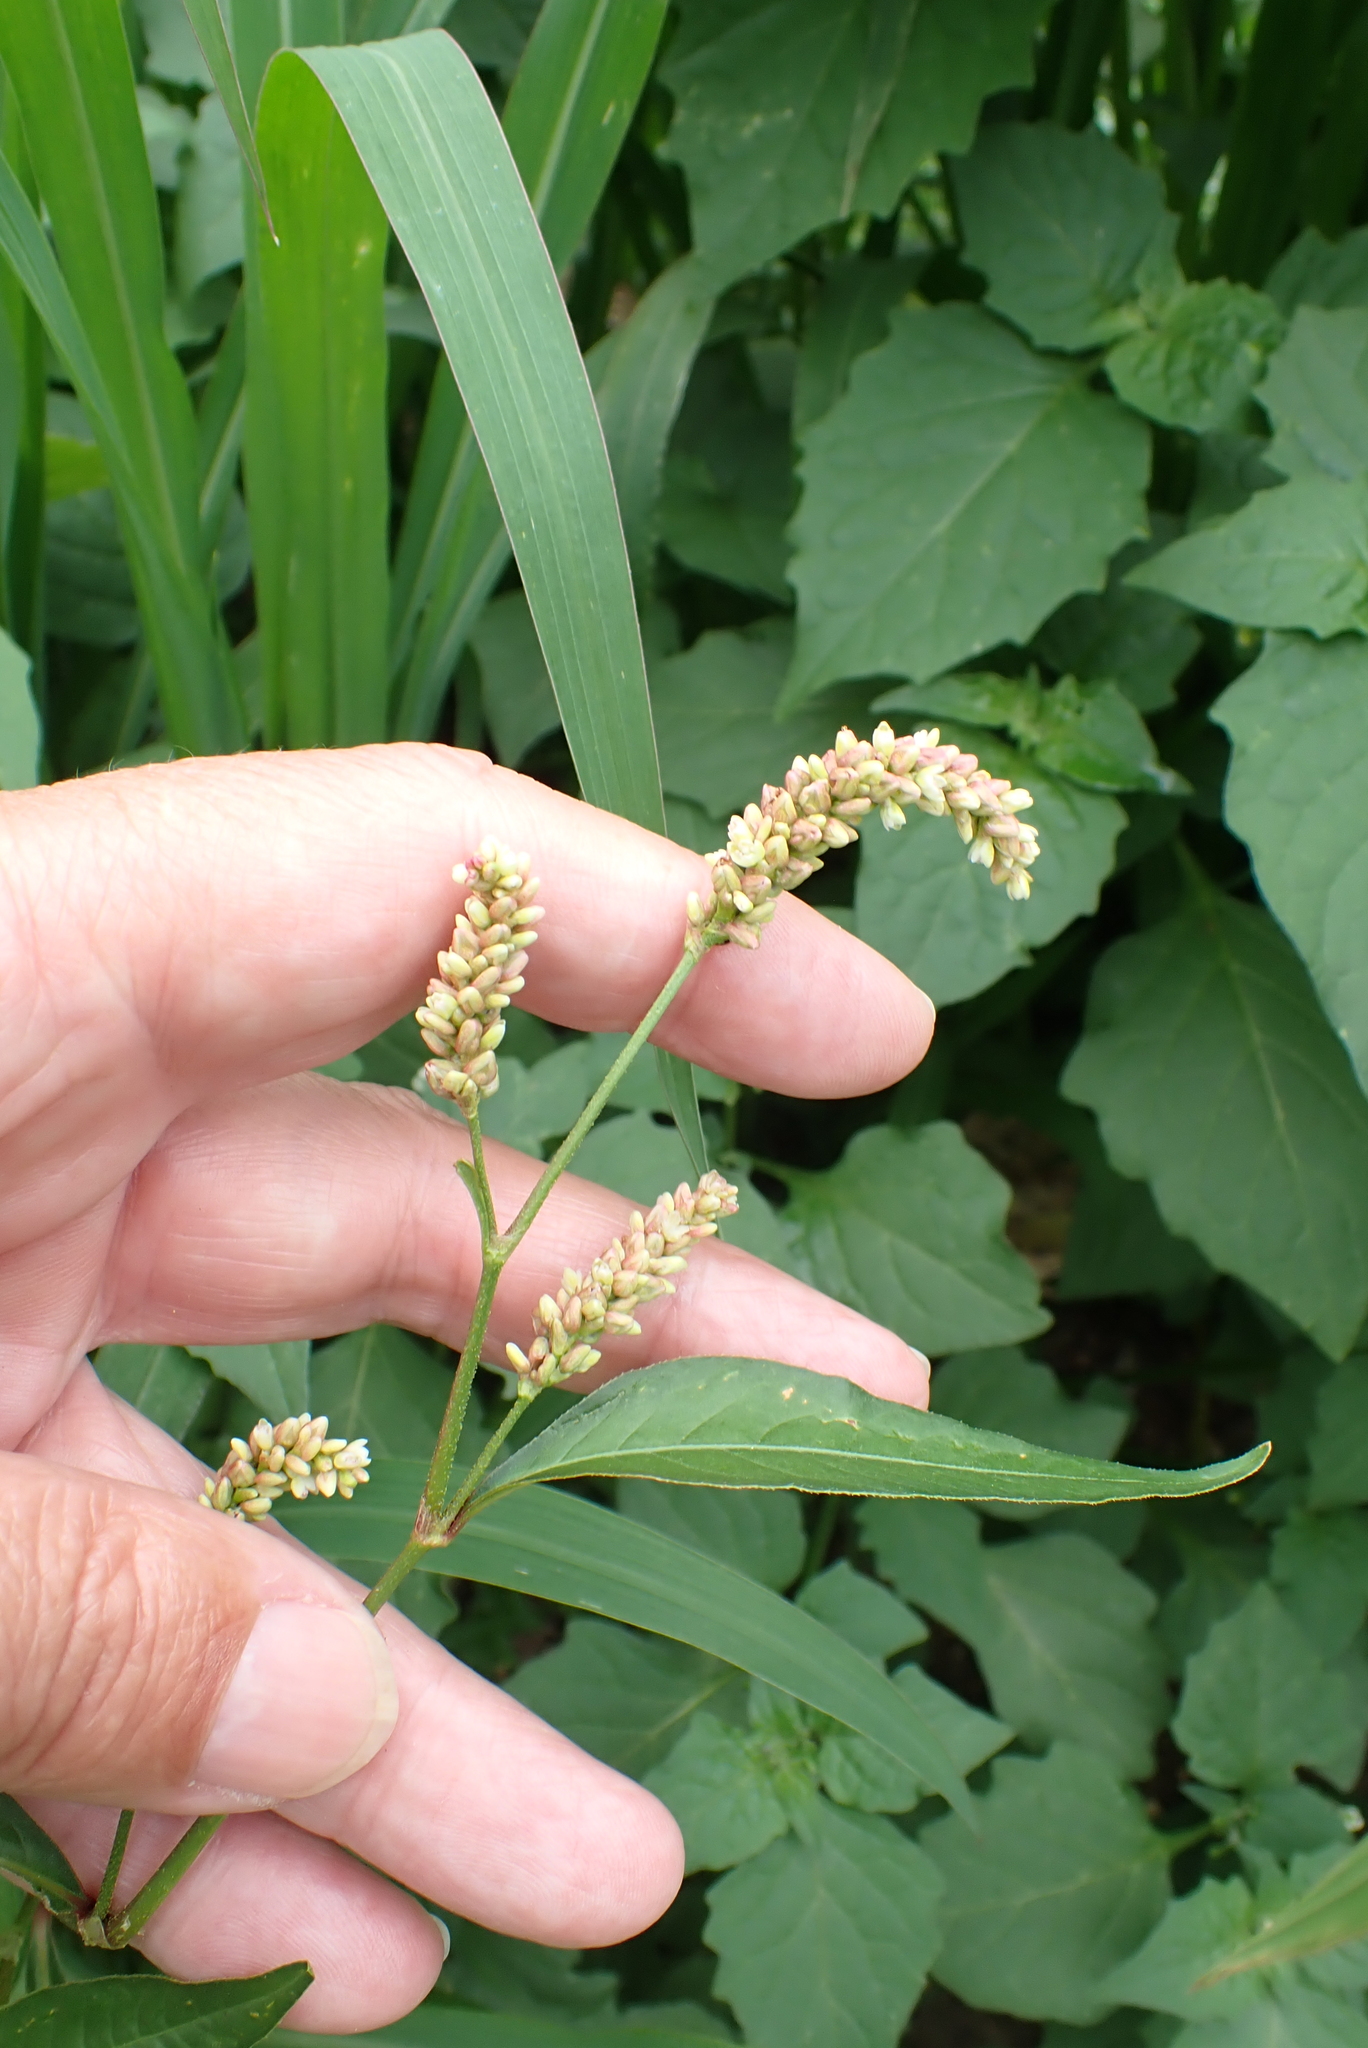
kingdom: Plantae
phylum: Tracheophyta
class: Magnoliopsida
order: Caryophyllales
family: Polygonaceae
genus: Persicaria
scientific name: Persicaria lapathifolia
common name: Curlytop knotweed
